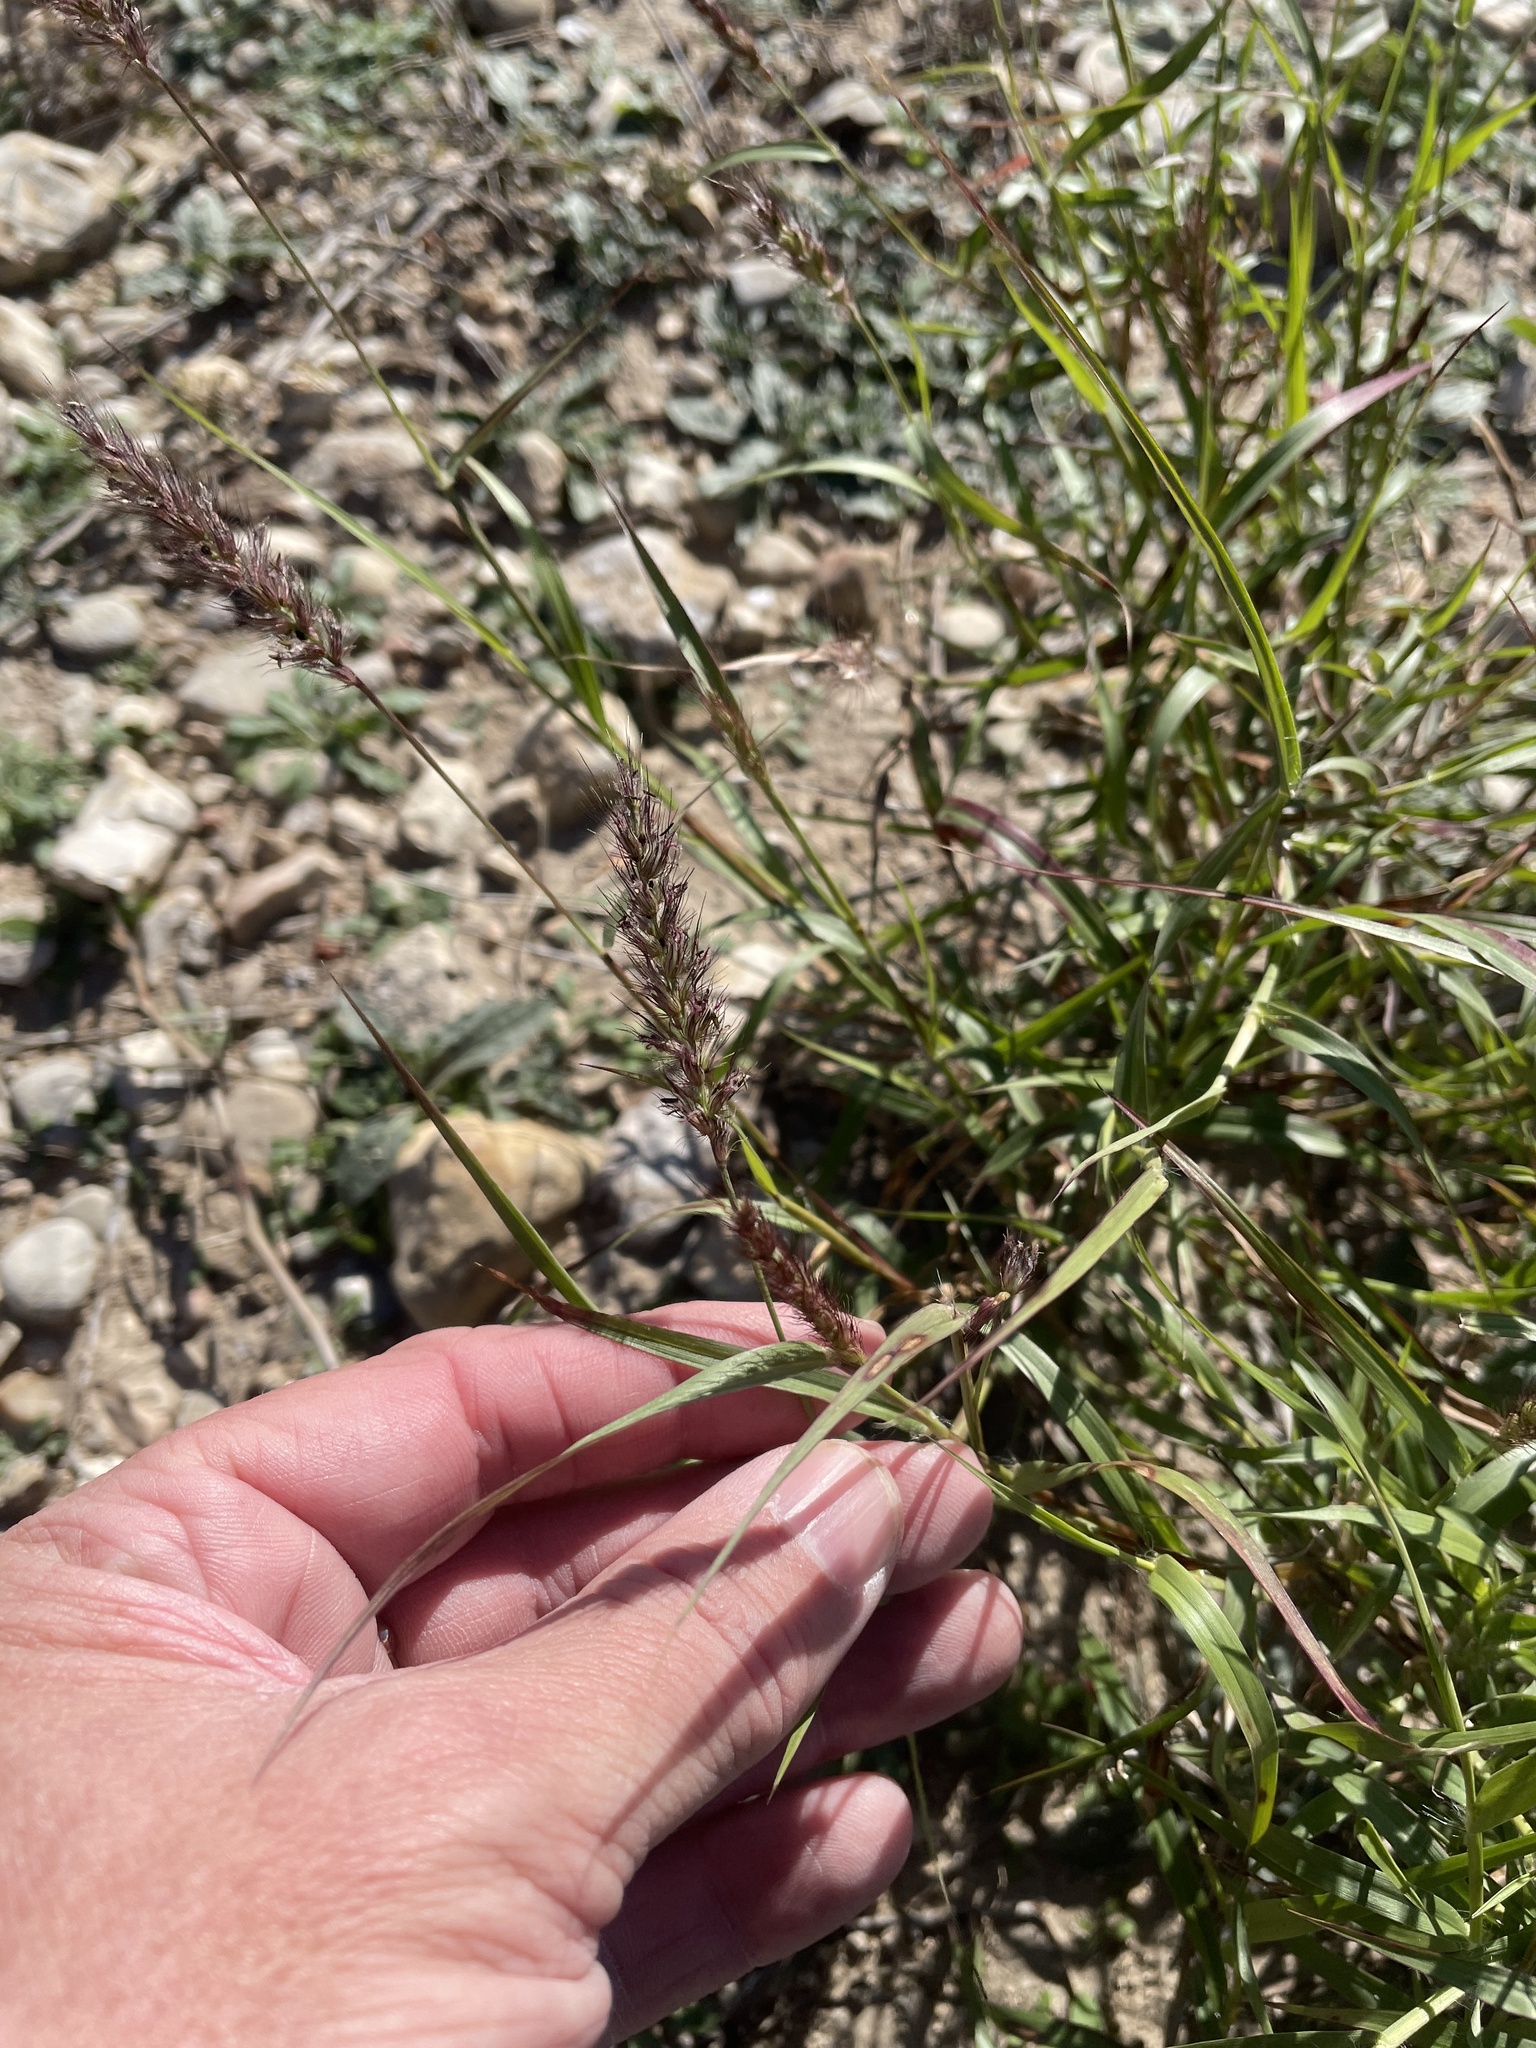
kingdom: Plantae
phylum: Tracheophyta
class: Liliopsida
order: Poales
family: Poaceae
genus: Cenchrus
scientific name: Cenchrus ciliaris
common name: Buffelgrass
